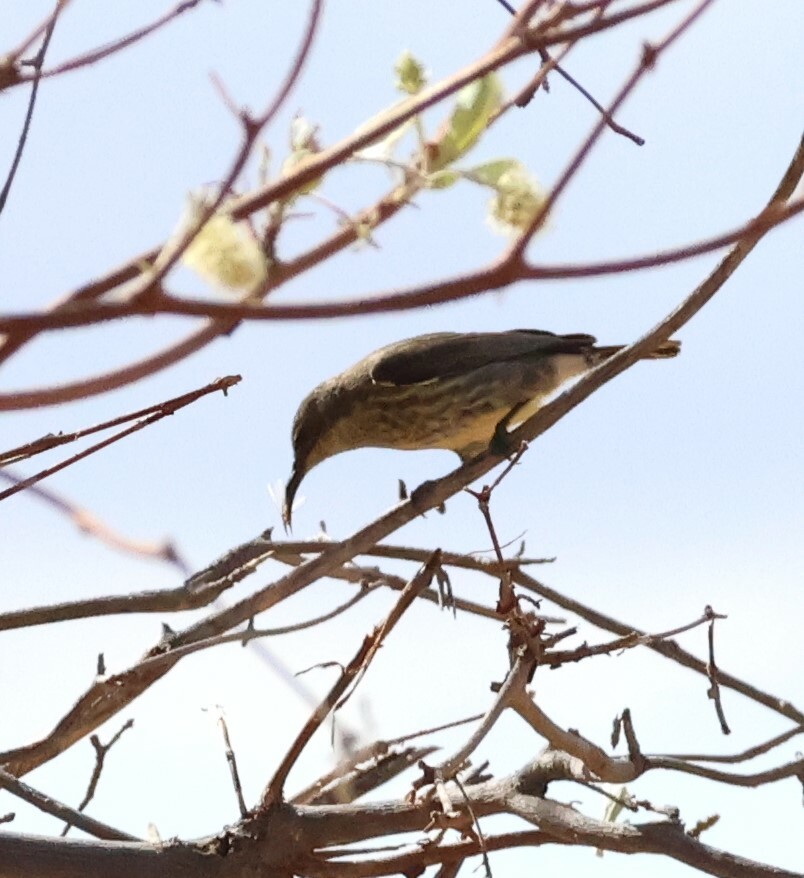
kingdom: Animalia
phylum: Chordata
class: Aves
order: Passeriformes
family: Nectariniidae
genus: Cinnyris
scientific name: Cinnyris mariquensis
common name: Marico sunbird
